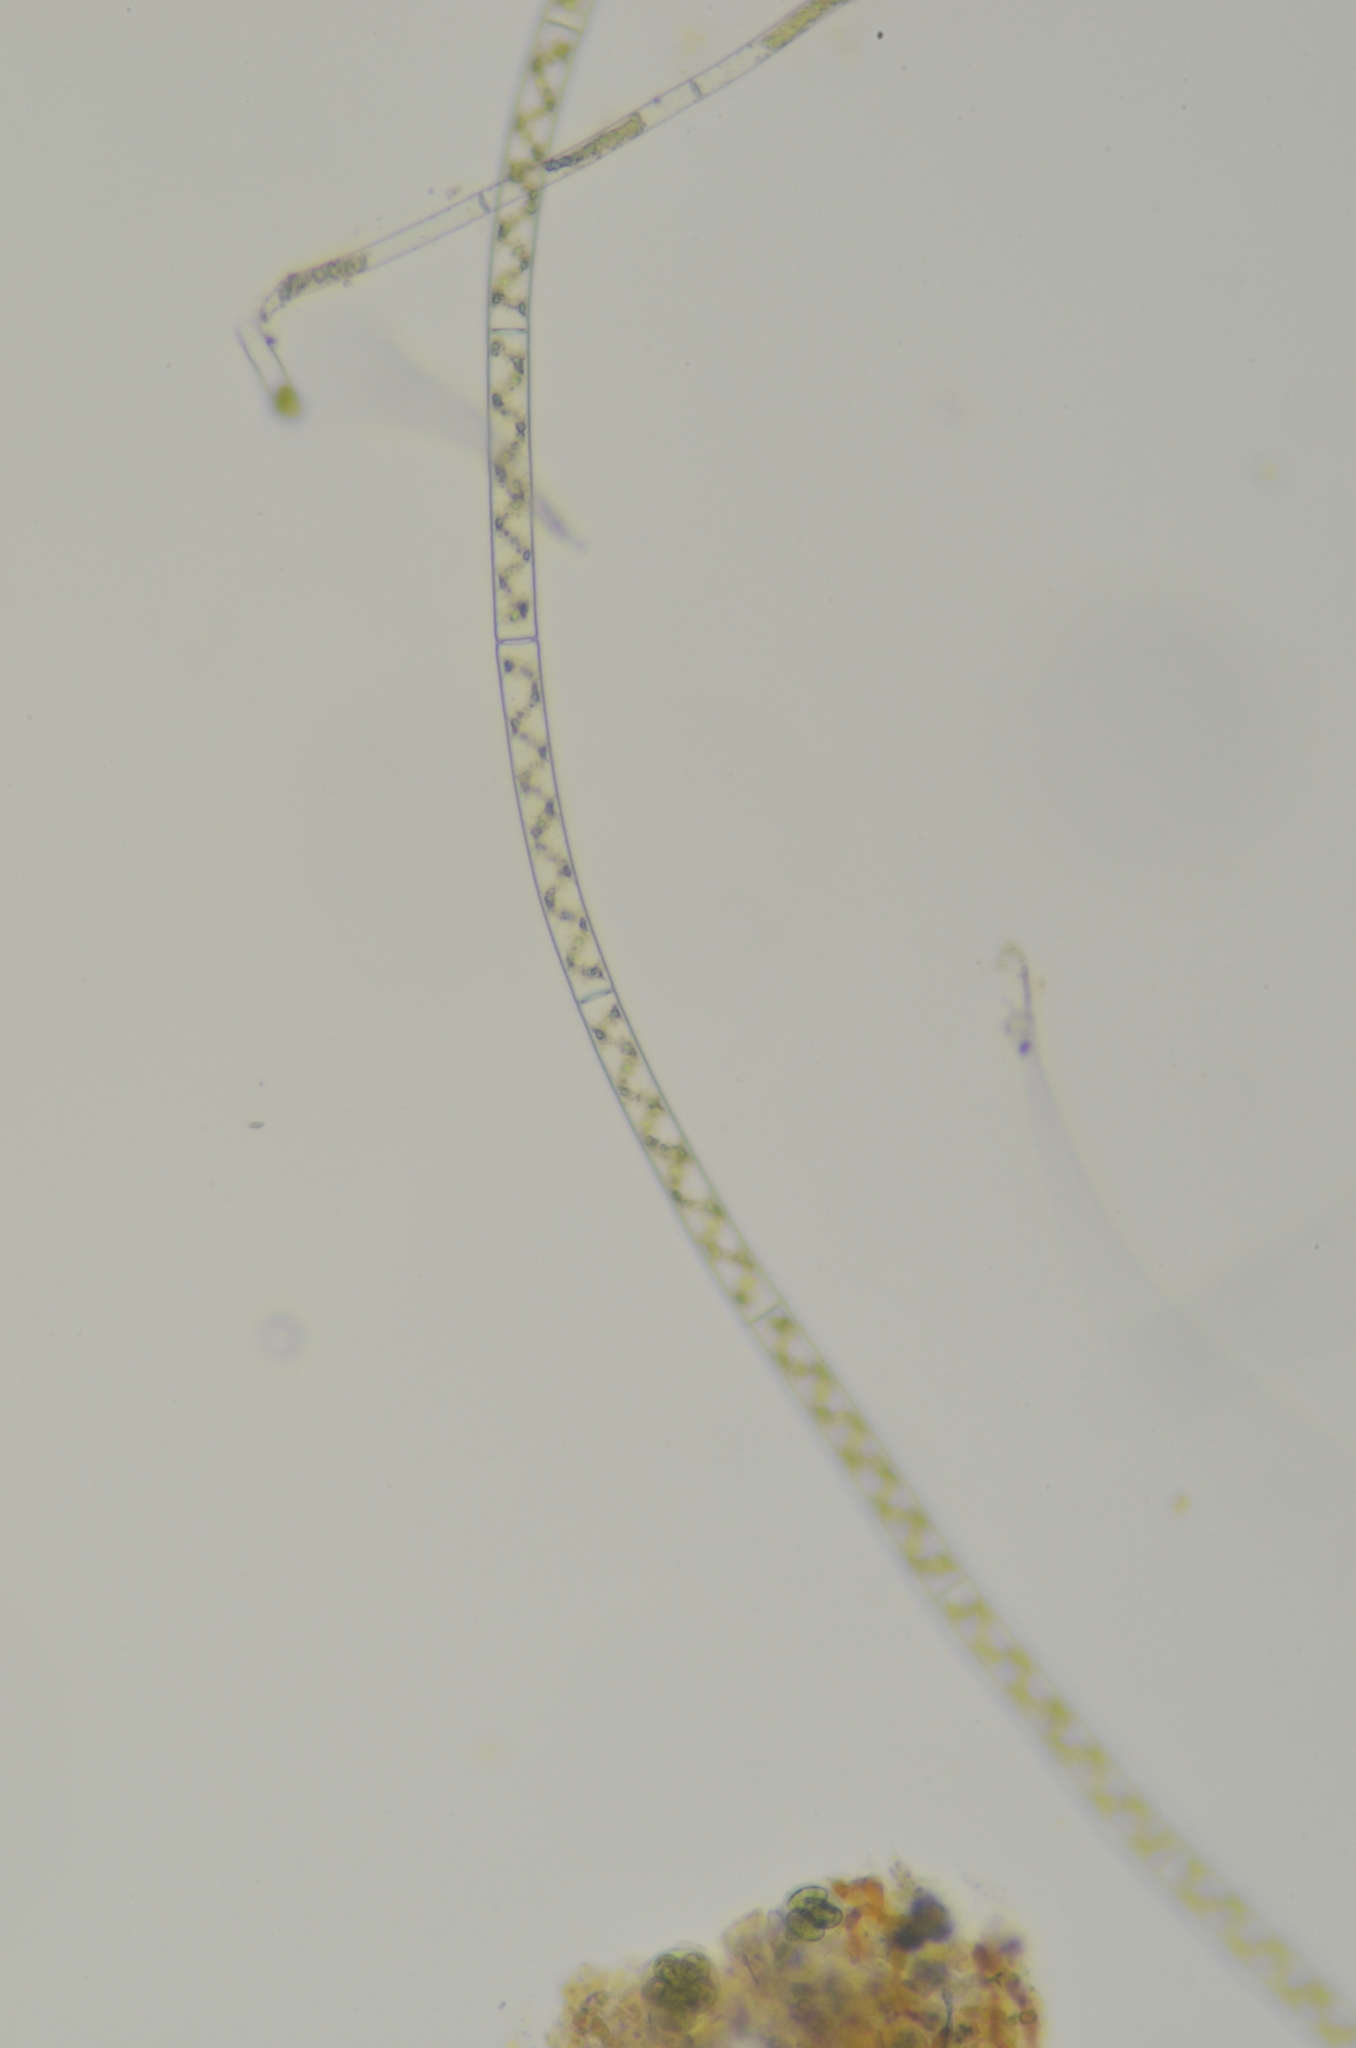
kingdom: Plantae
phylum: Charophyta
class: Zygnematophyceae
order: Zygnematales
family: Zygnemataceae
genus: Spirogyra
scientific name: Spirogyra
